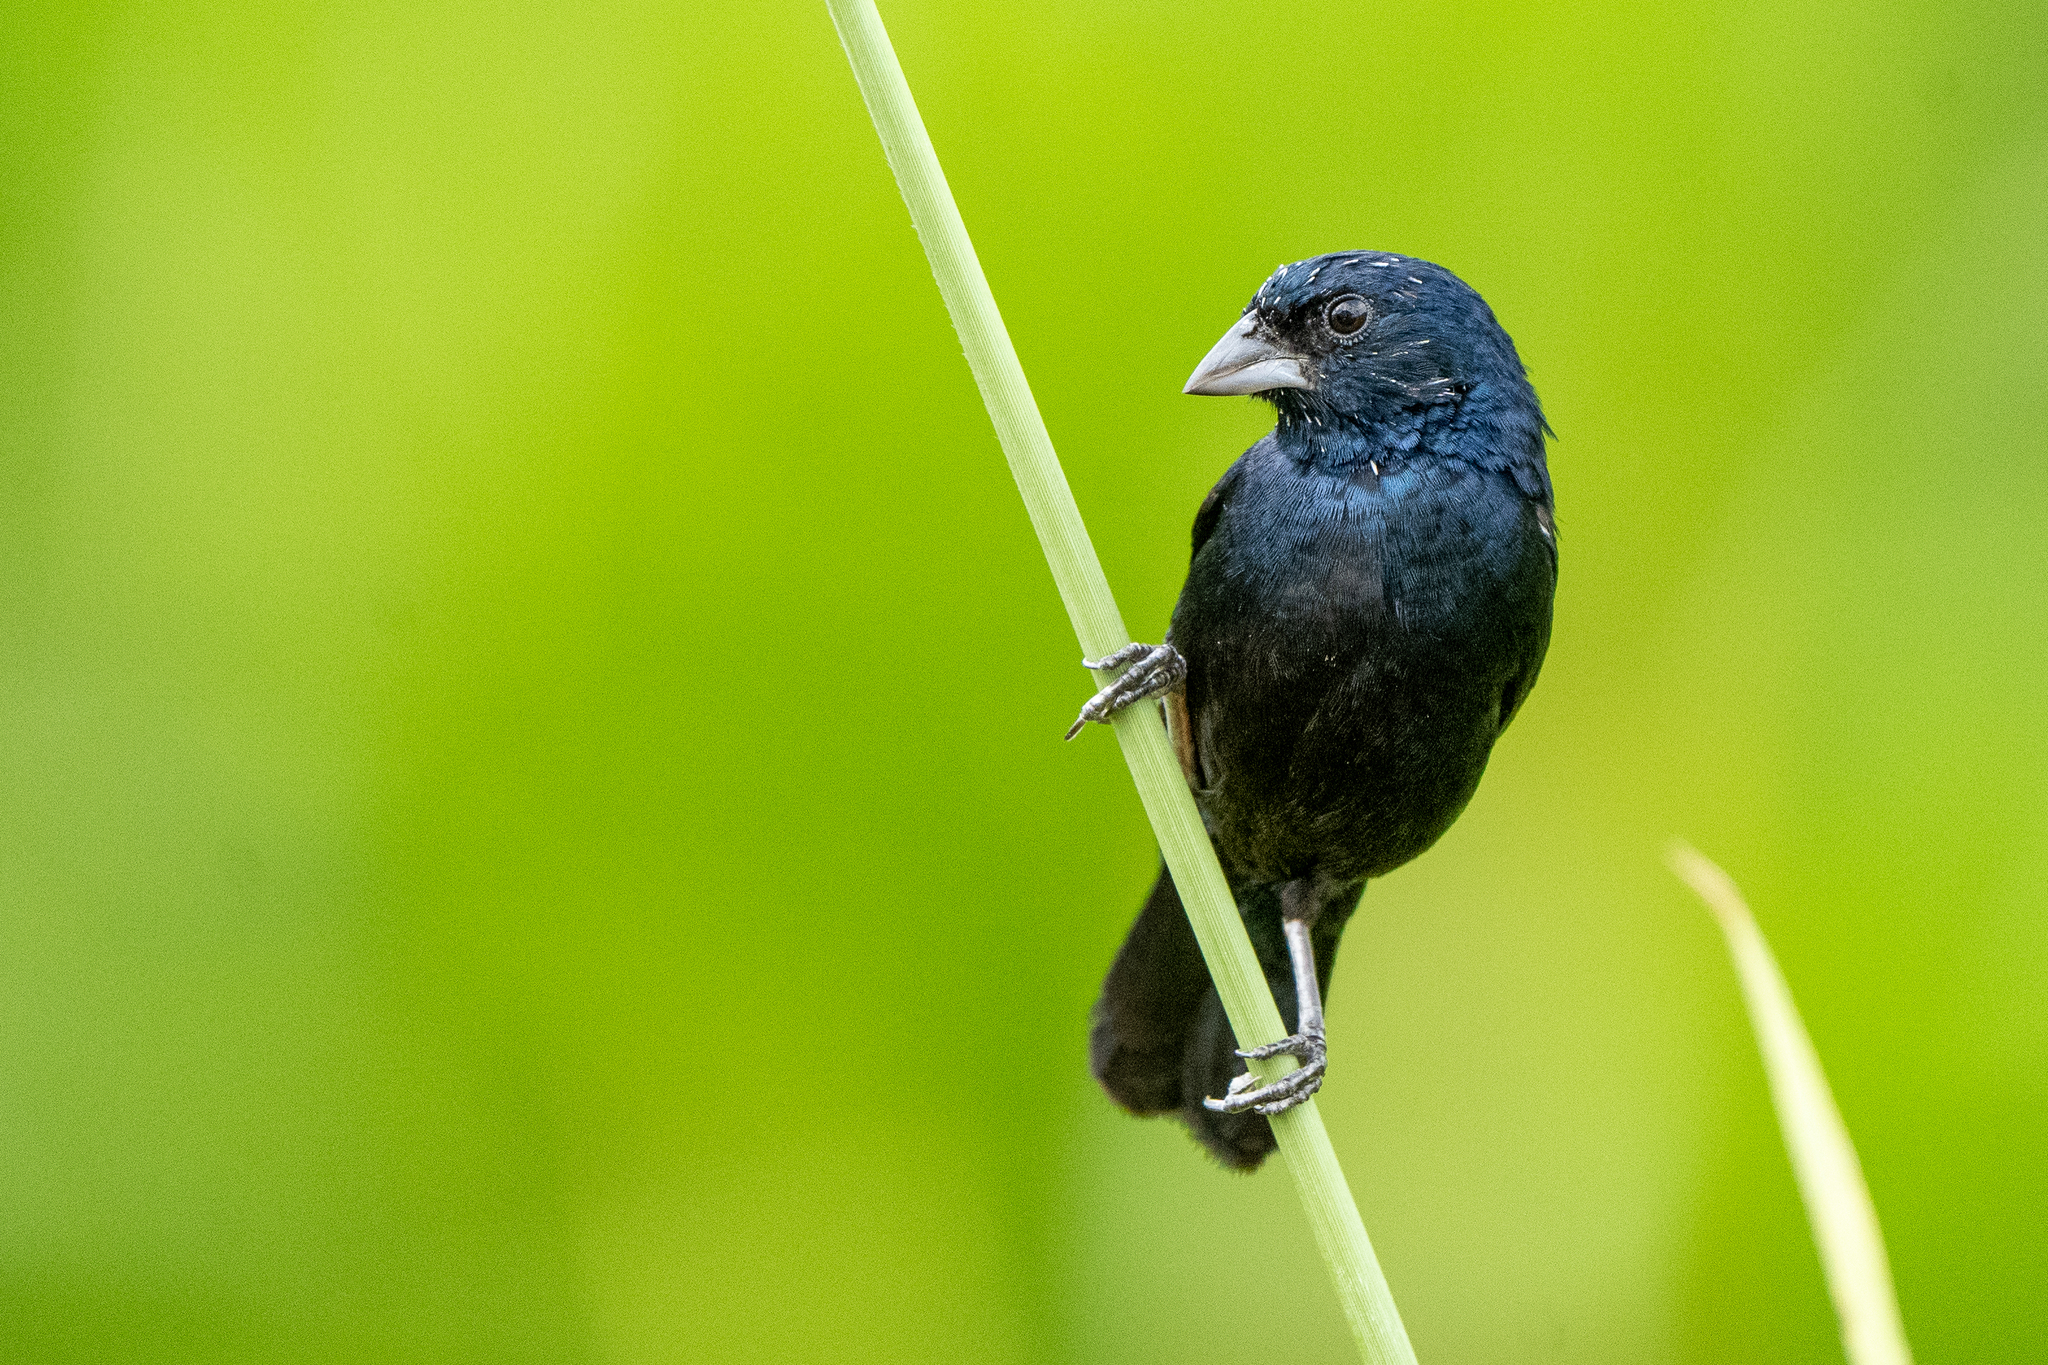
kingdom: Animalia
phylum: Chordata
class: Aves
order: Passeriformes
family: Thraupidae
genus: Volatinia
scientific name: Volatinia jacarina
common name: Blue-black grassquit
